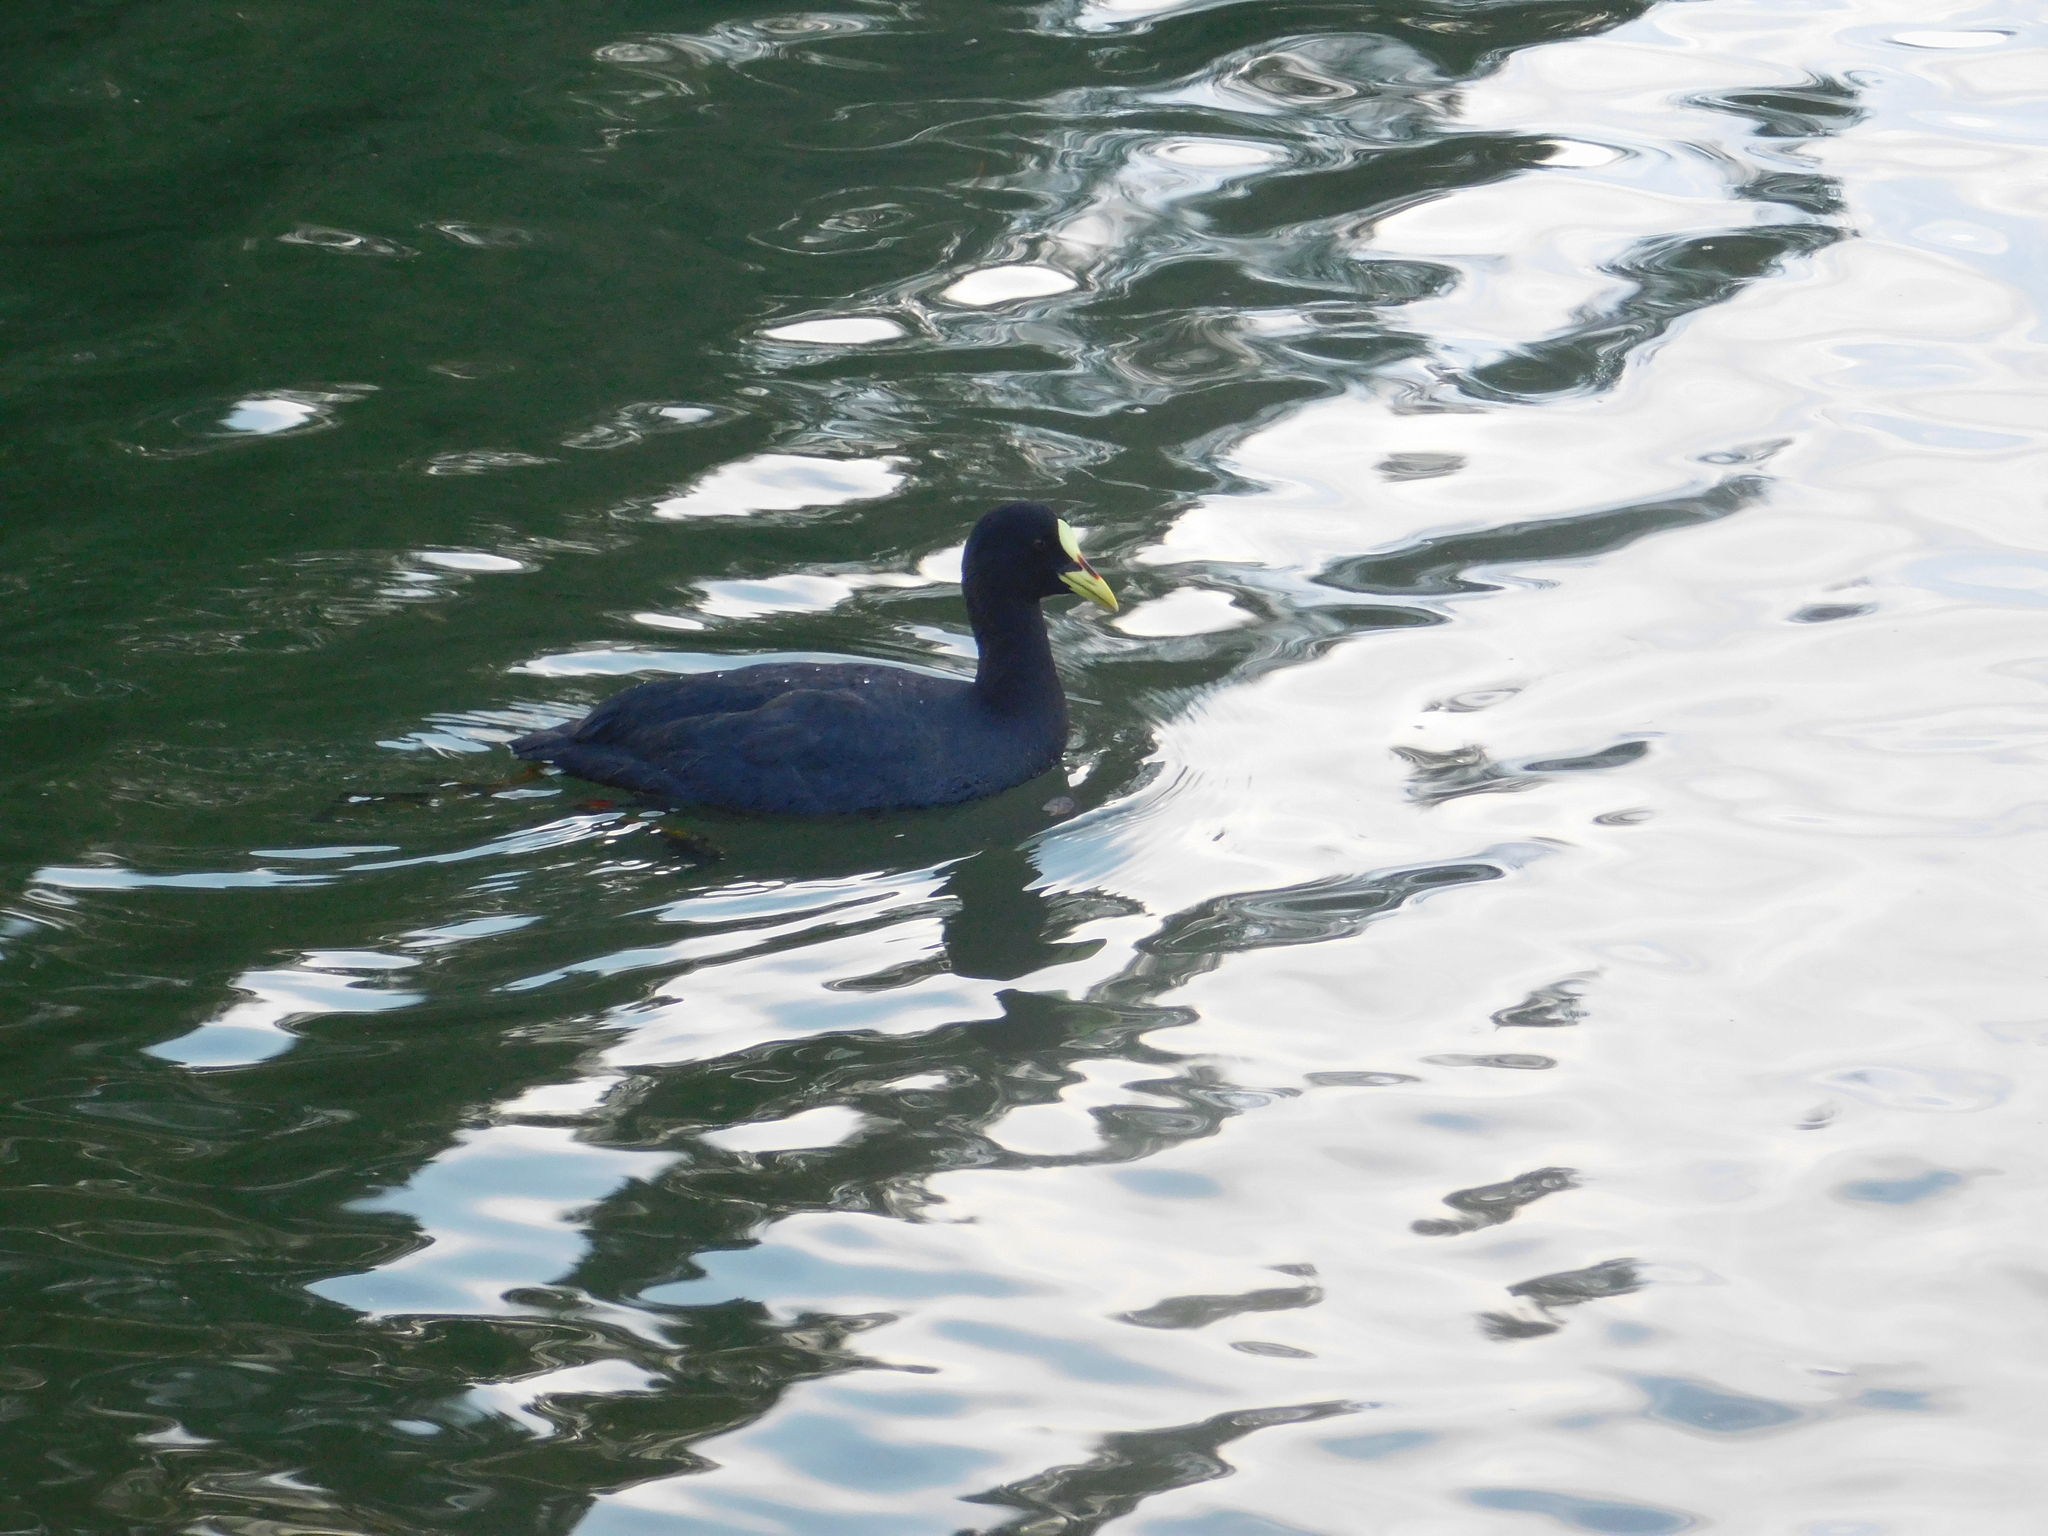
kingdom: Animalia
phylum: Chordata
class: Aves
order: Gruiformes
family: Rallidae
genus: Fulica
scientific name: Fulica armillata
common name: Red-gartered coot
